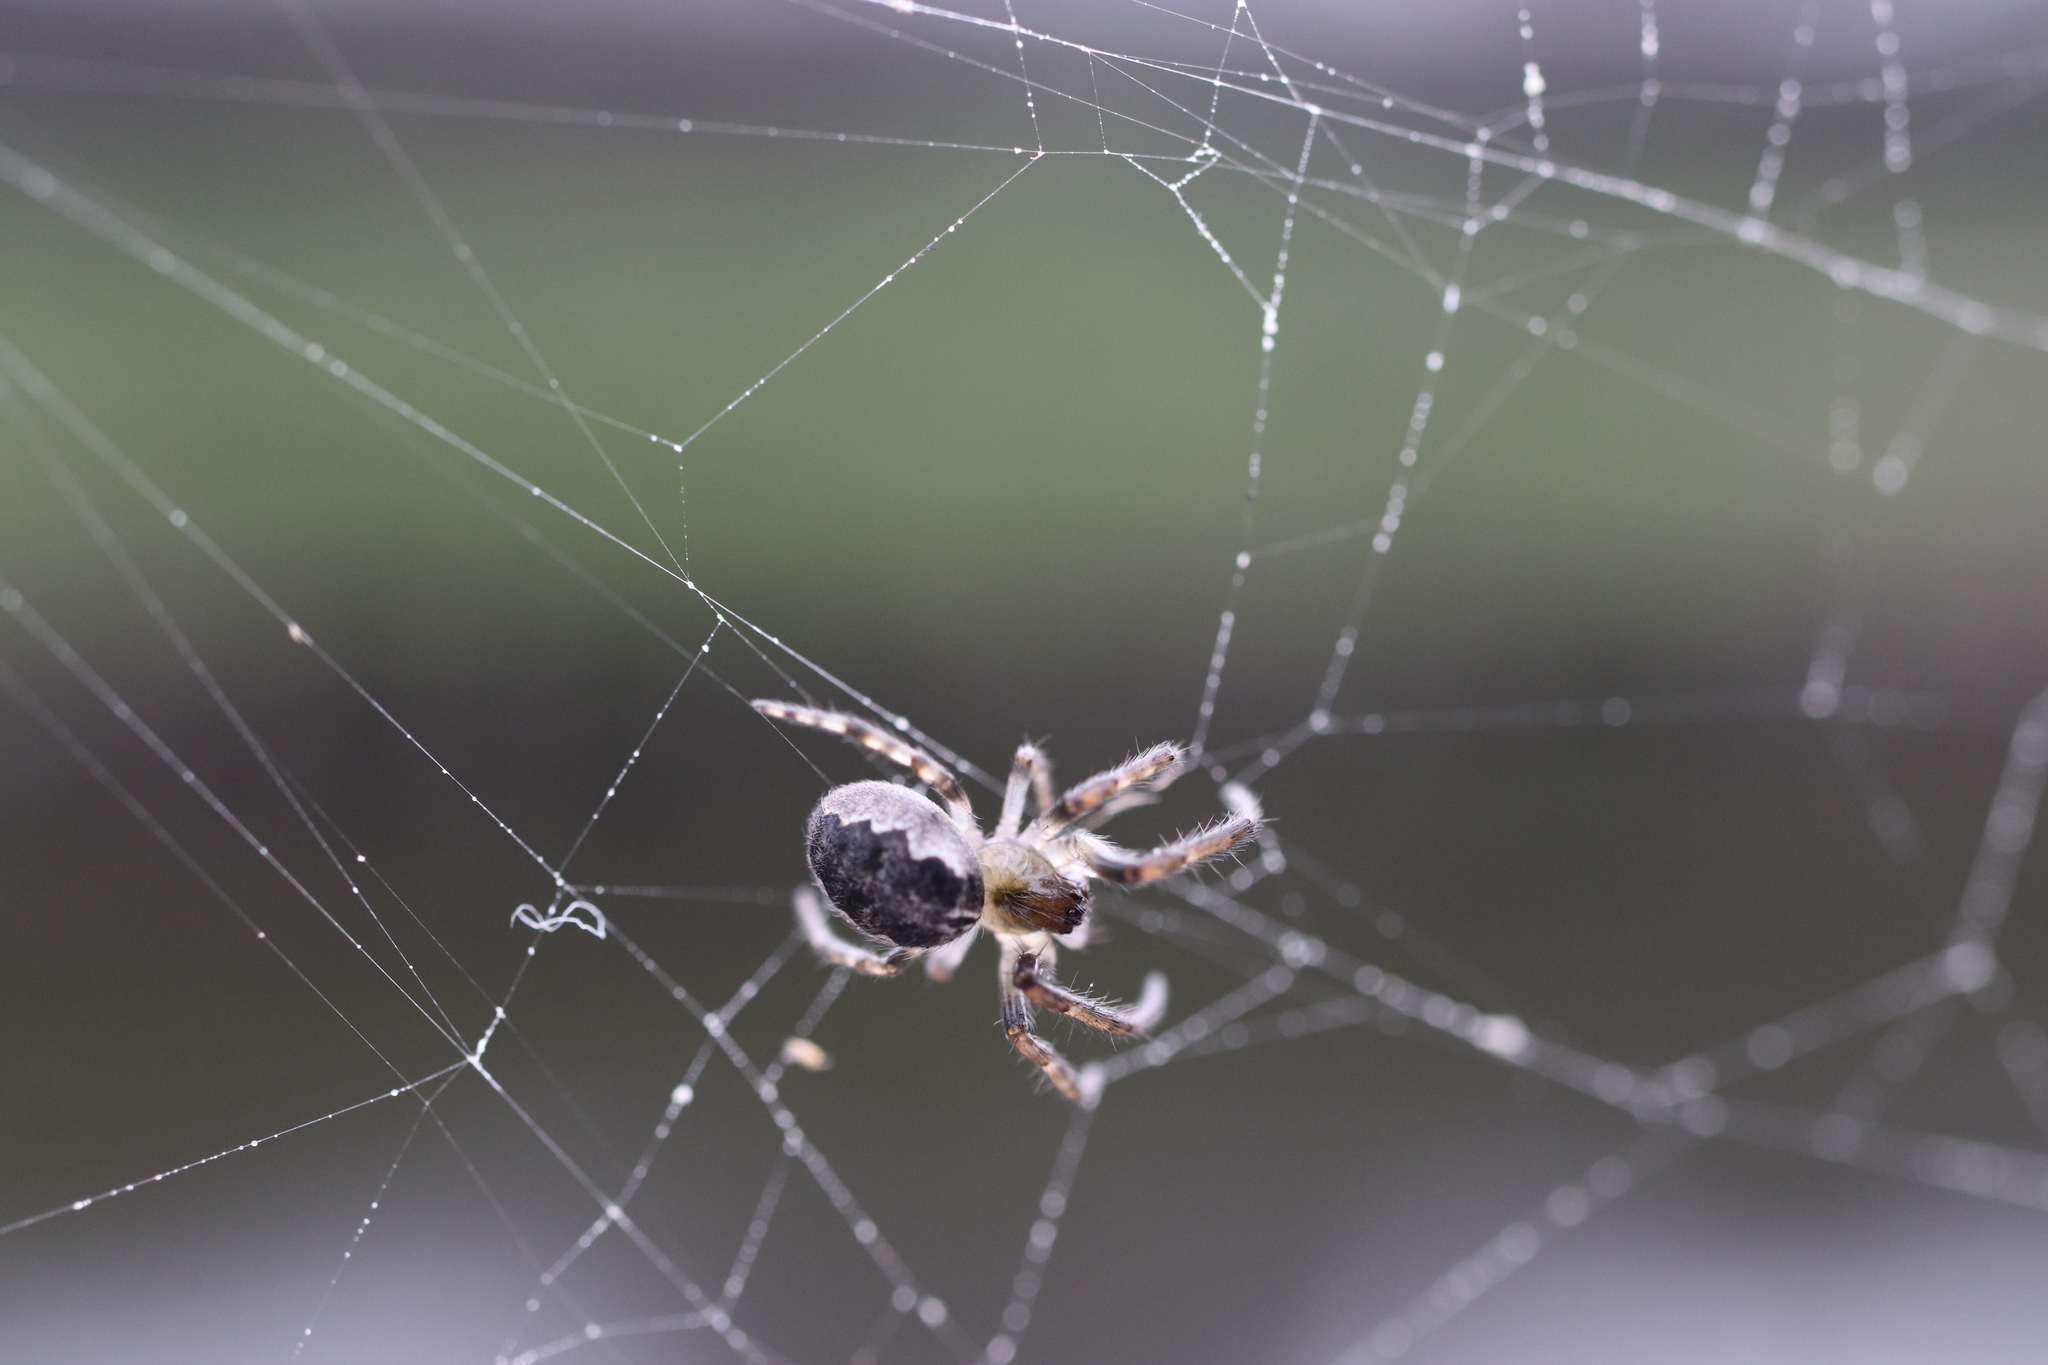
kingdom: Animalia
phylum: Arthropoda
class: Arachnida
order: Araneae
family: Araneidae
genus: Yaginumia
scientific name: Yaginumia sia
